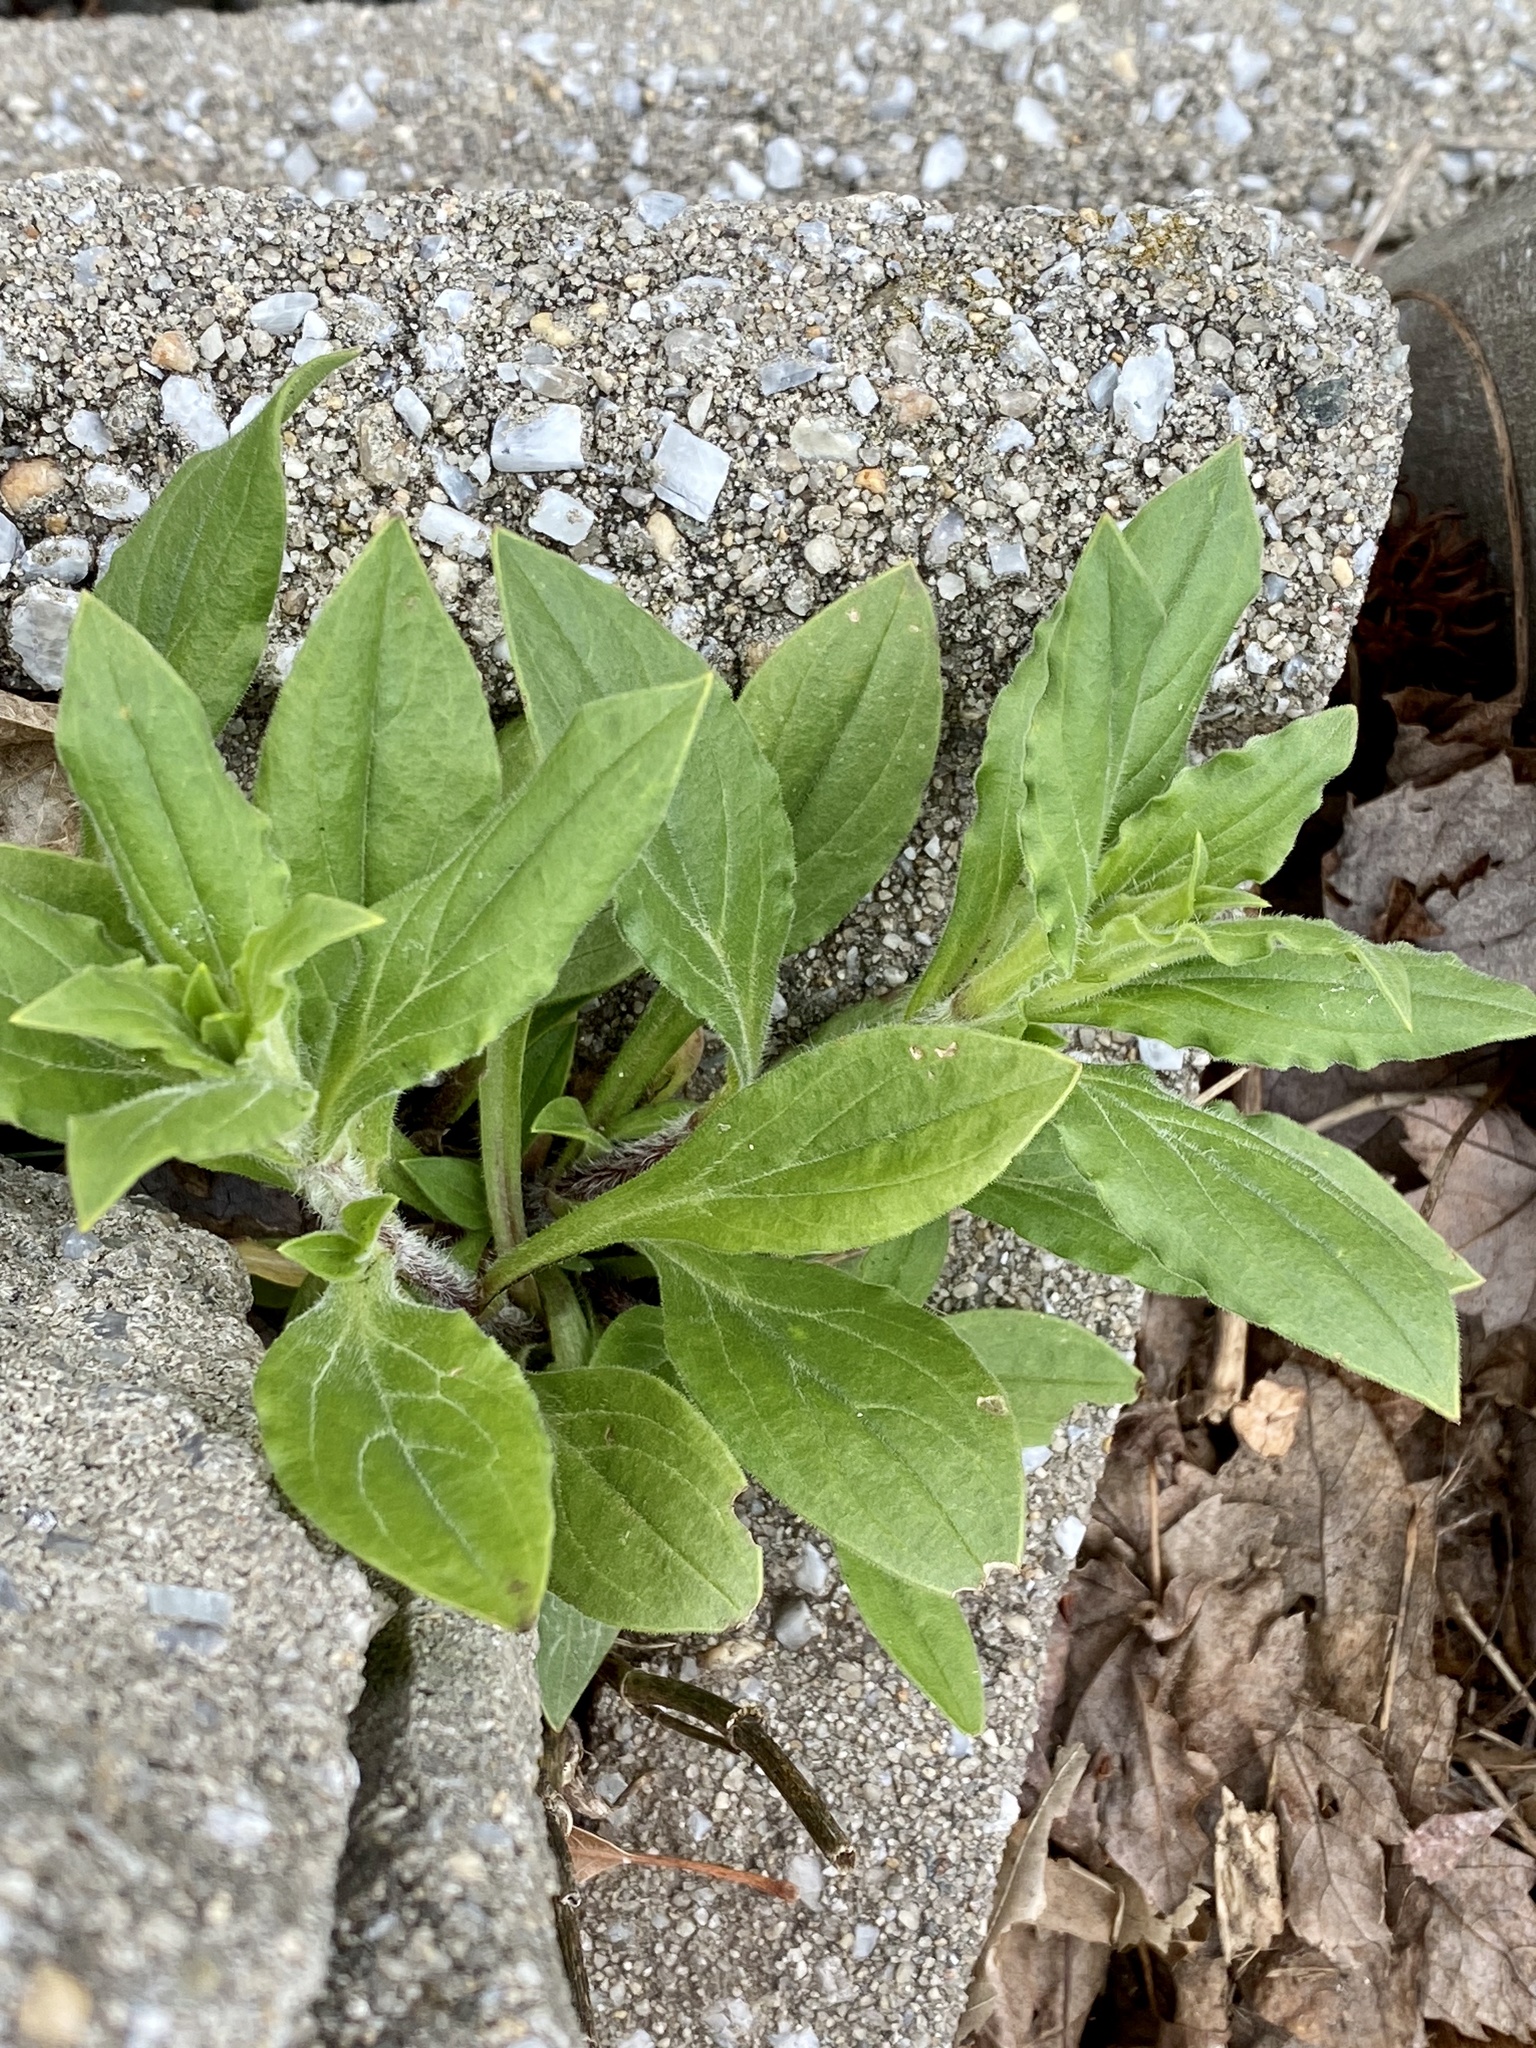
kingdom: Plantae
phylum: Tracheophyta
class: Magnoliopsida
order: Caryophyllales
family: Caryophyllaceae
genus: Silene
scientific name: Silene latifolia
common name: White campion
